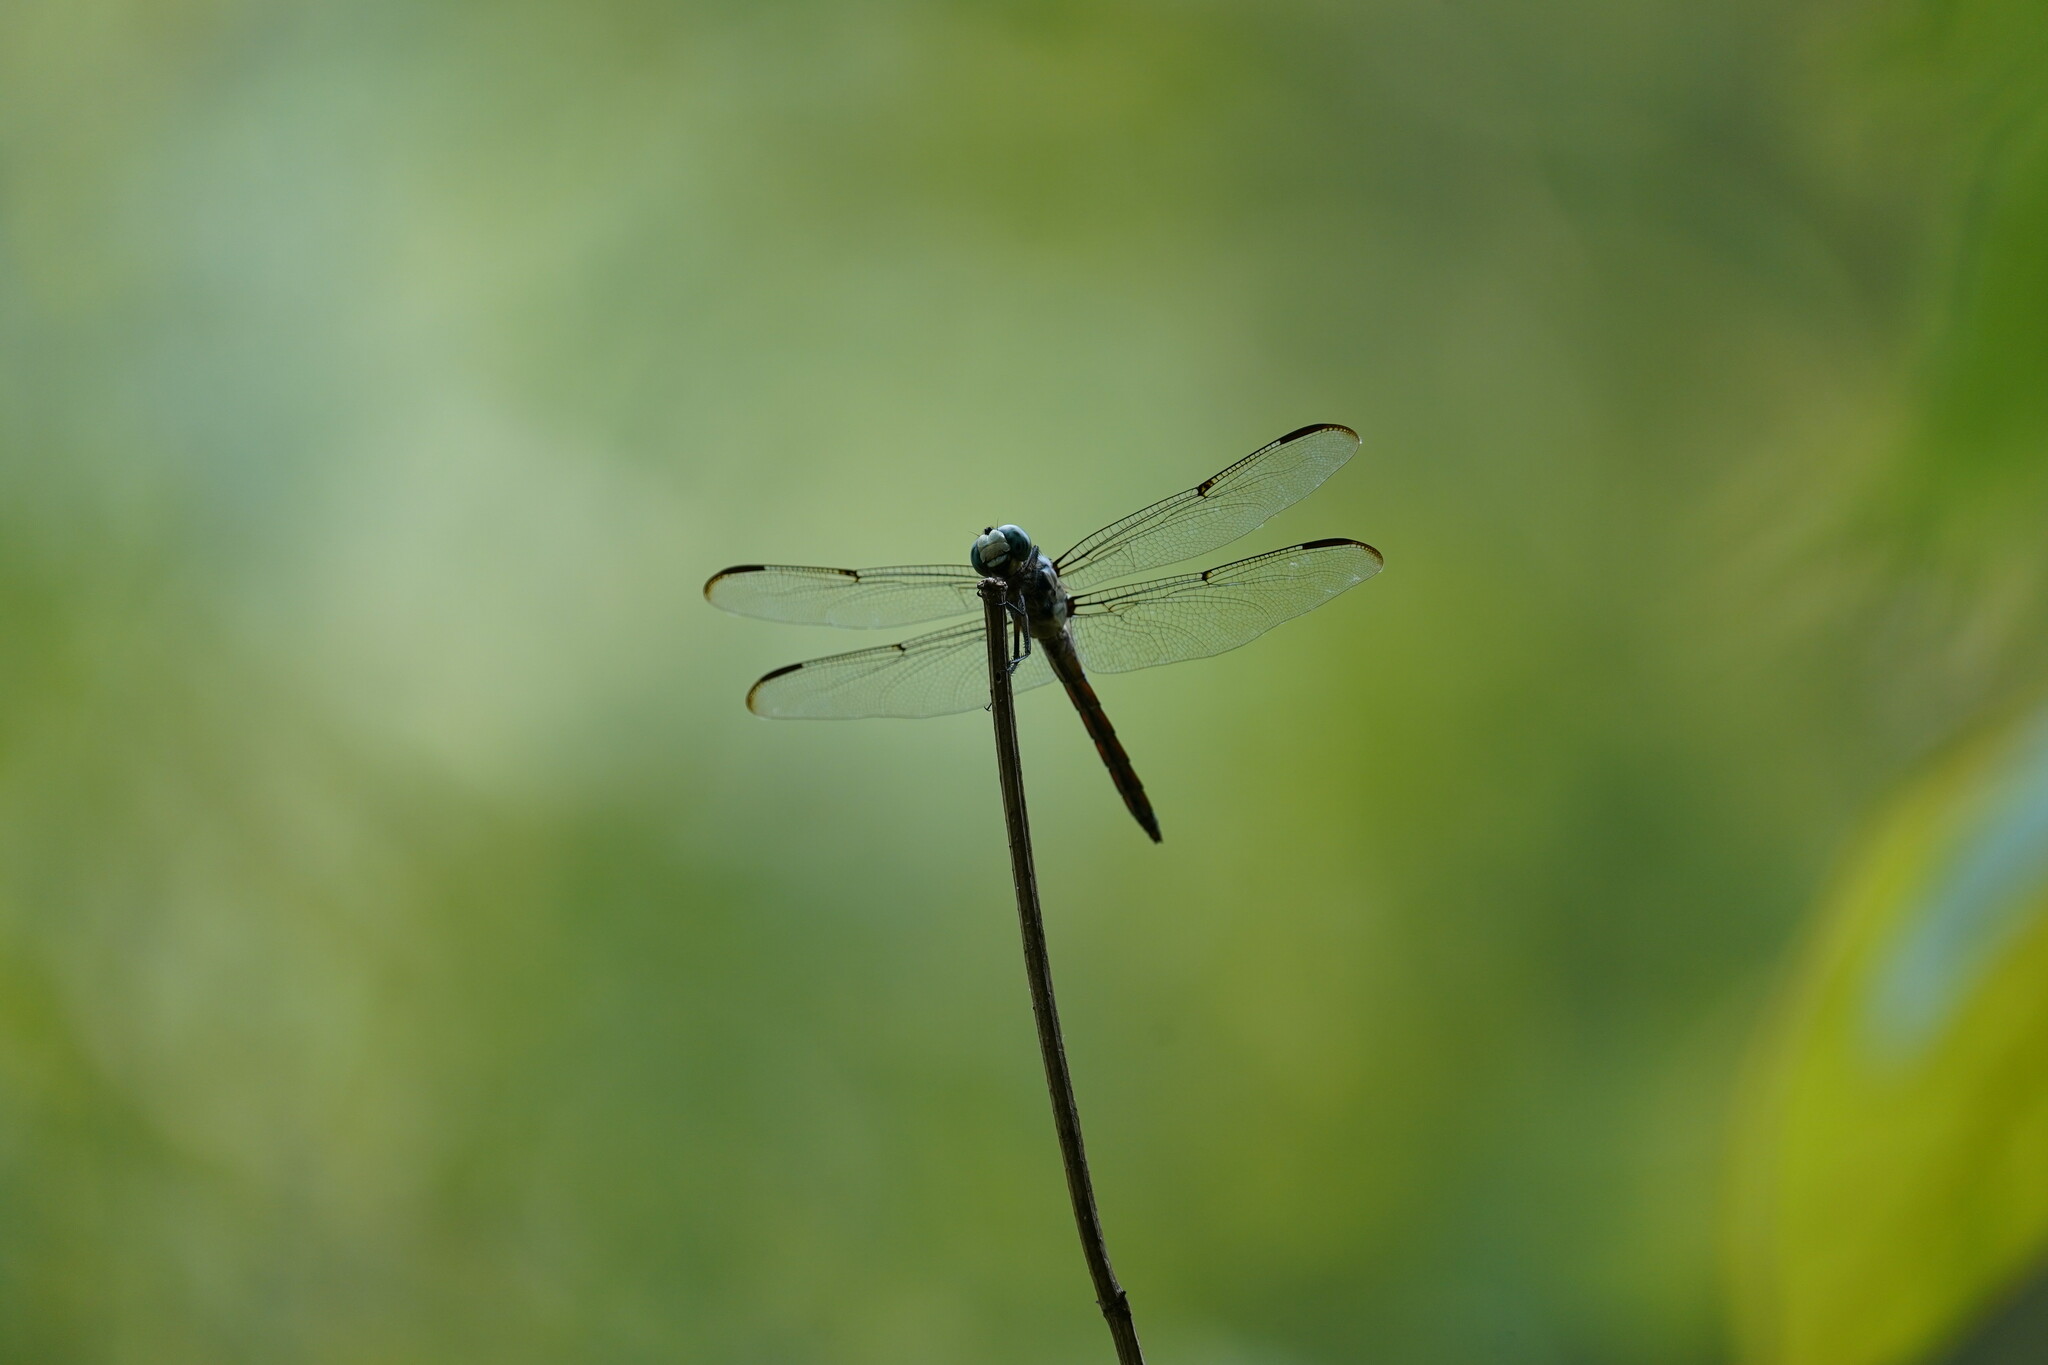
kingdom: Animalia
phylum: Arthropoda
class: Insecta
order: Odonata
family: Libellulidae
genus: Libellula
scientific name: Libellula vibrans
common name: Great blue skimmer
